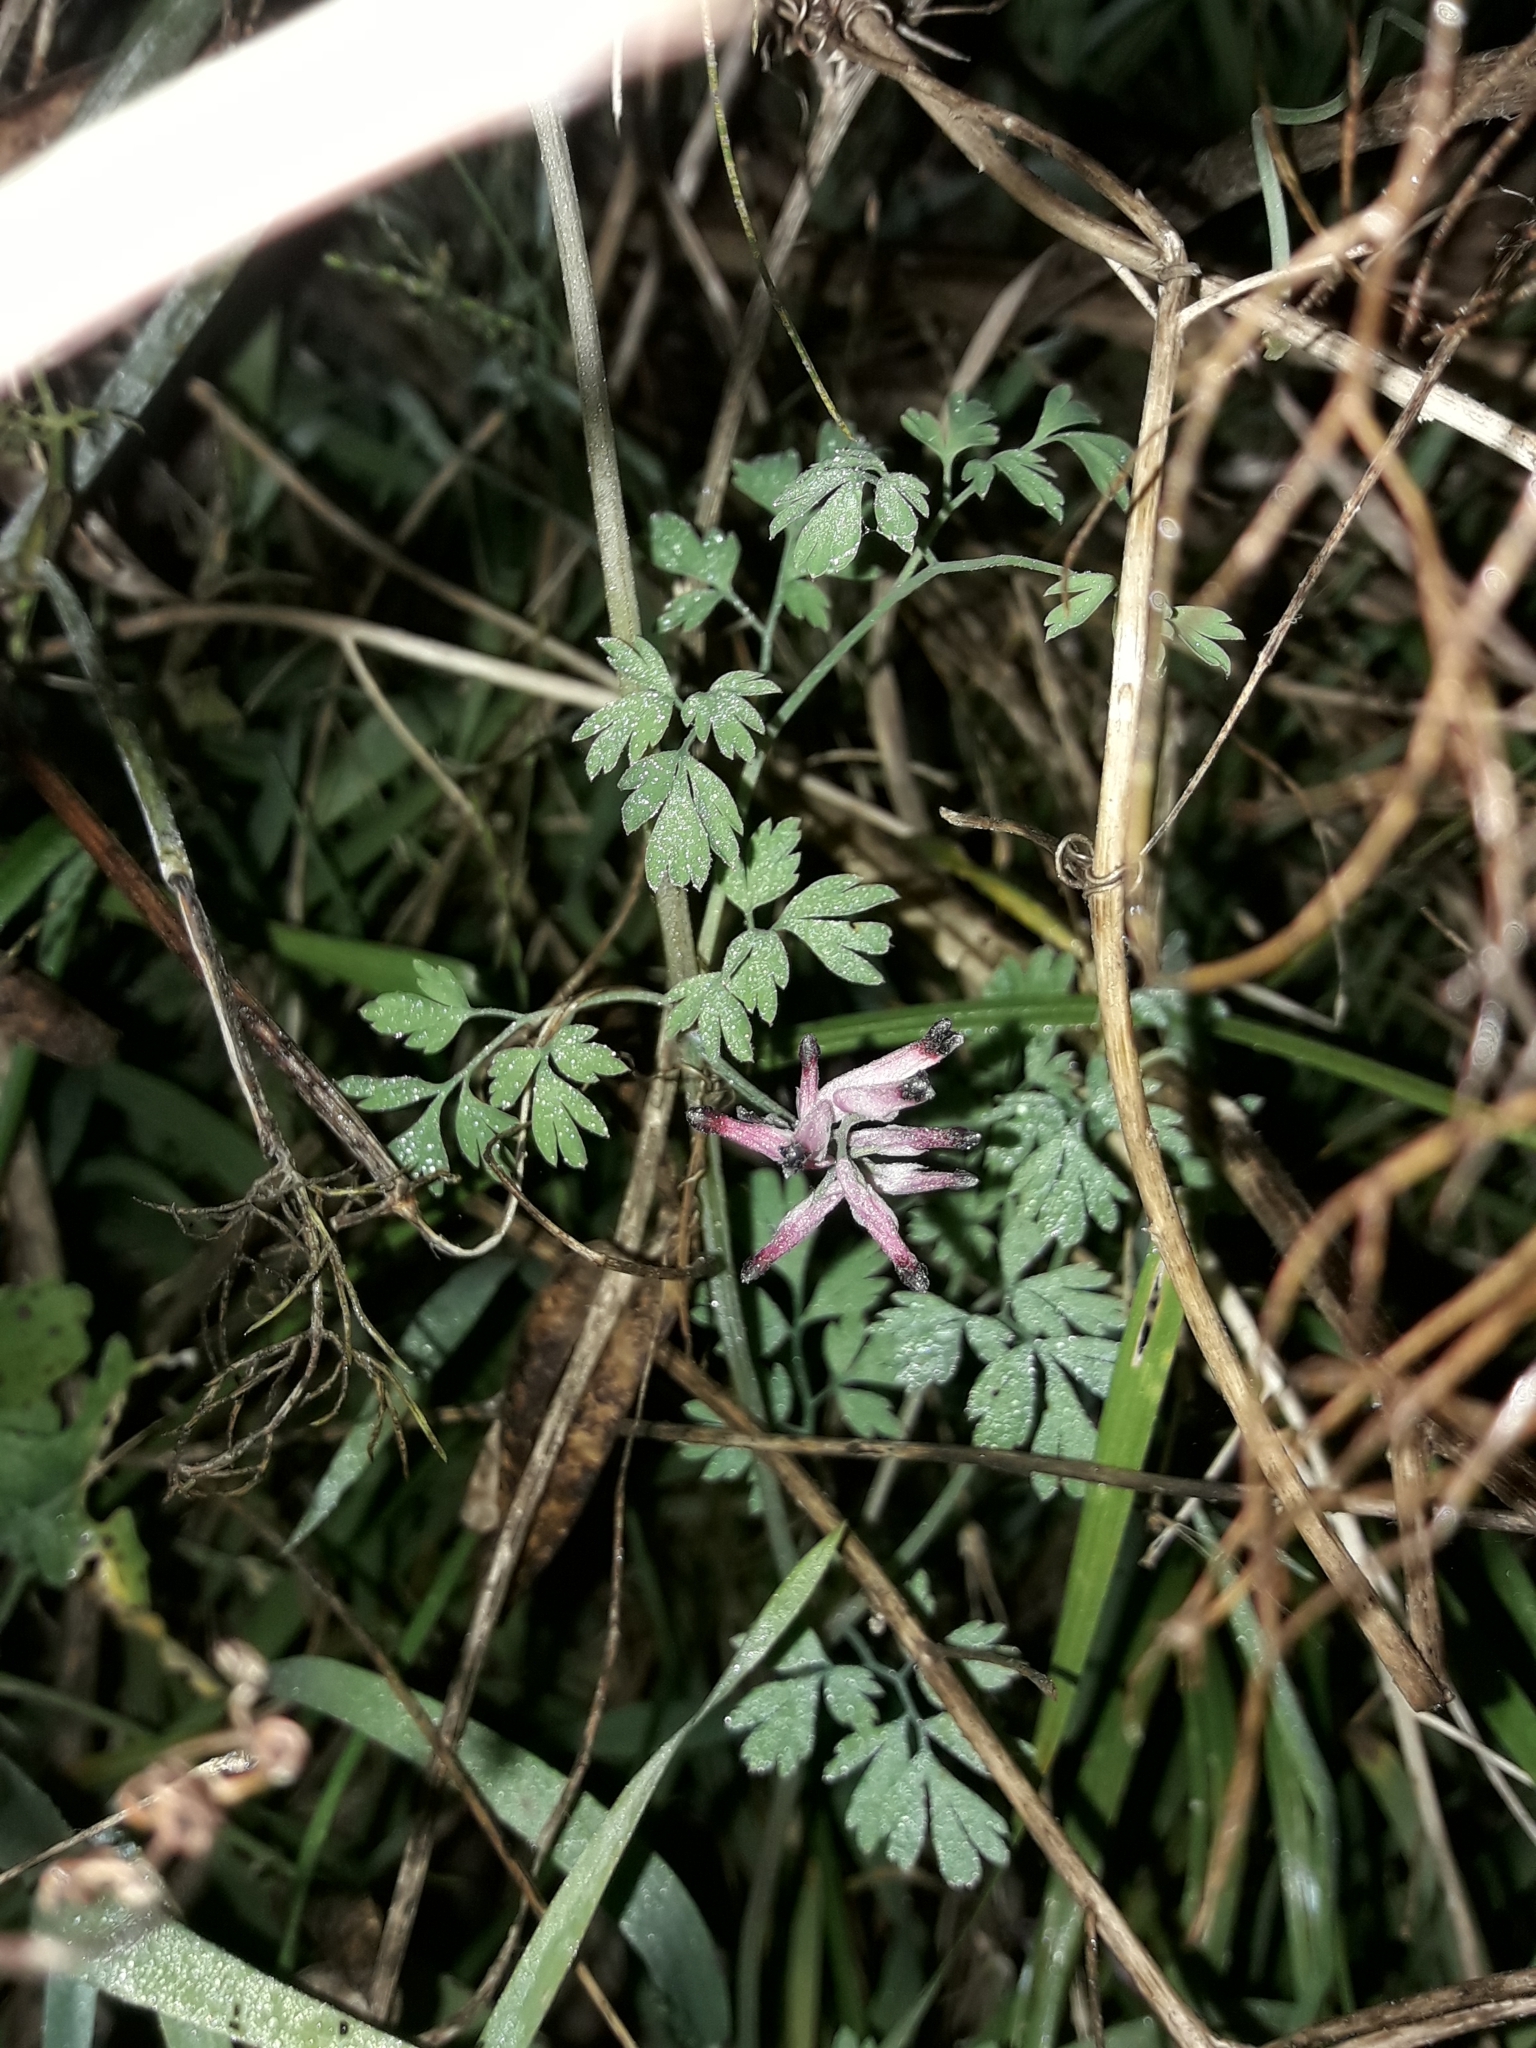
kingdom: Plantae
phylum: Tracheophyta
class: Magnoliopsida
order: Ranunculales
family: Papaveraceae
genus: Fumaria
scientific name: Fumaria muralis
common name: Common ramping-fumitory
